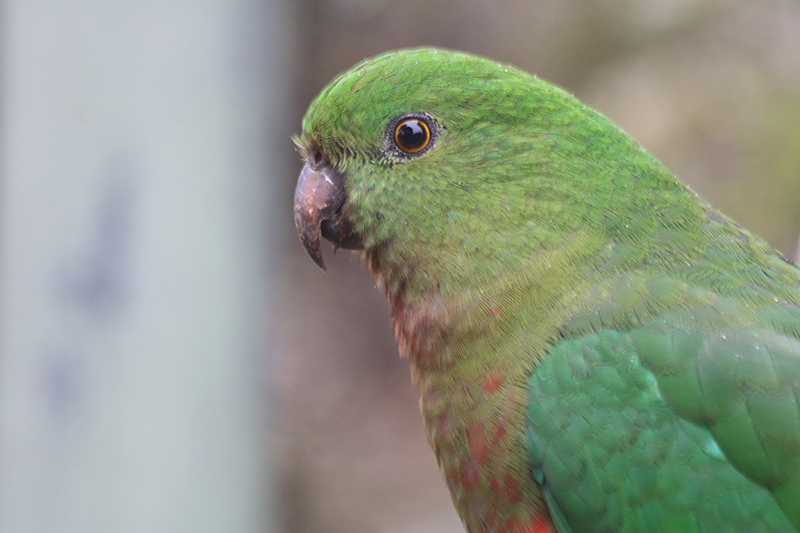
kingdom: Animalia
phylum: Chordata
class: Aves
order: Psittaciformes
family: Psittacidae
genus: Alisterus
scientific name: Alisterus scapularis
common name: Australian king parrot
